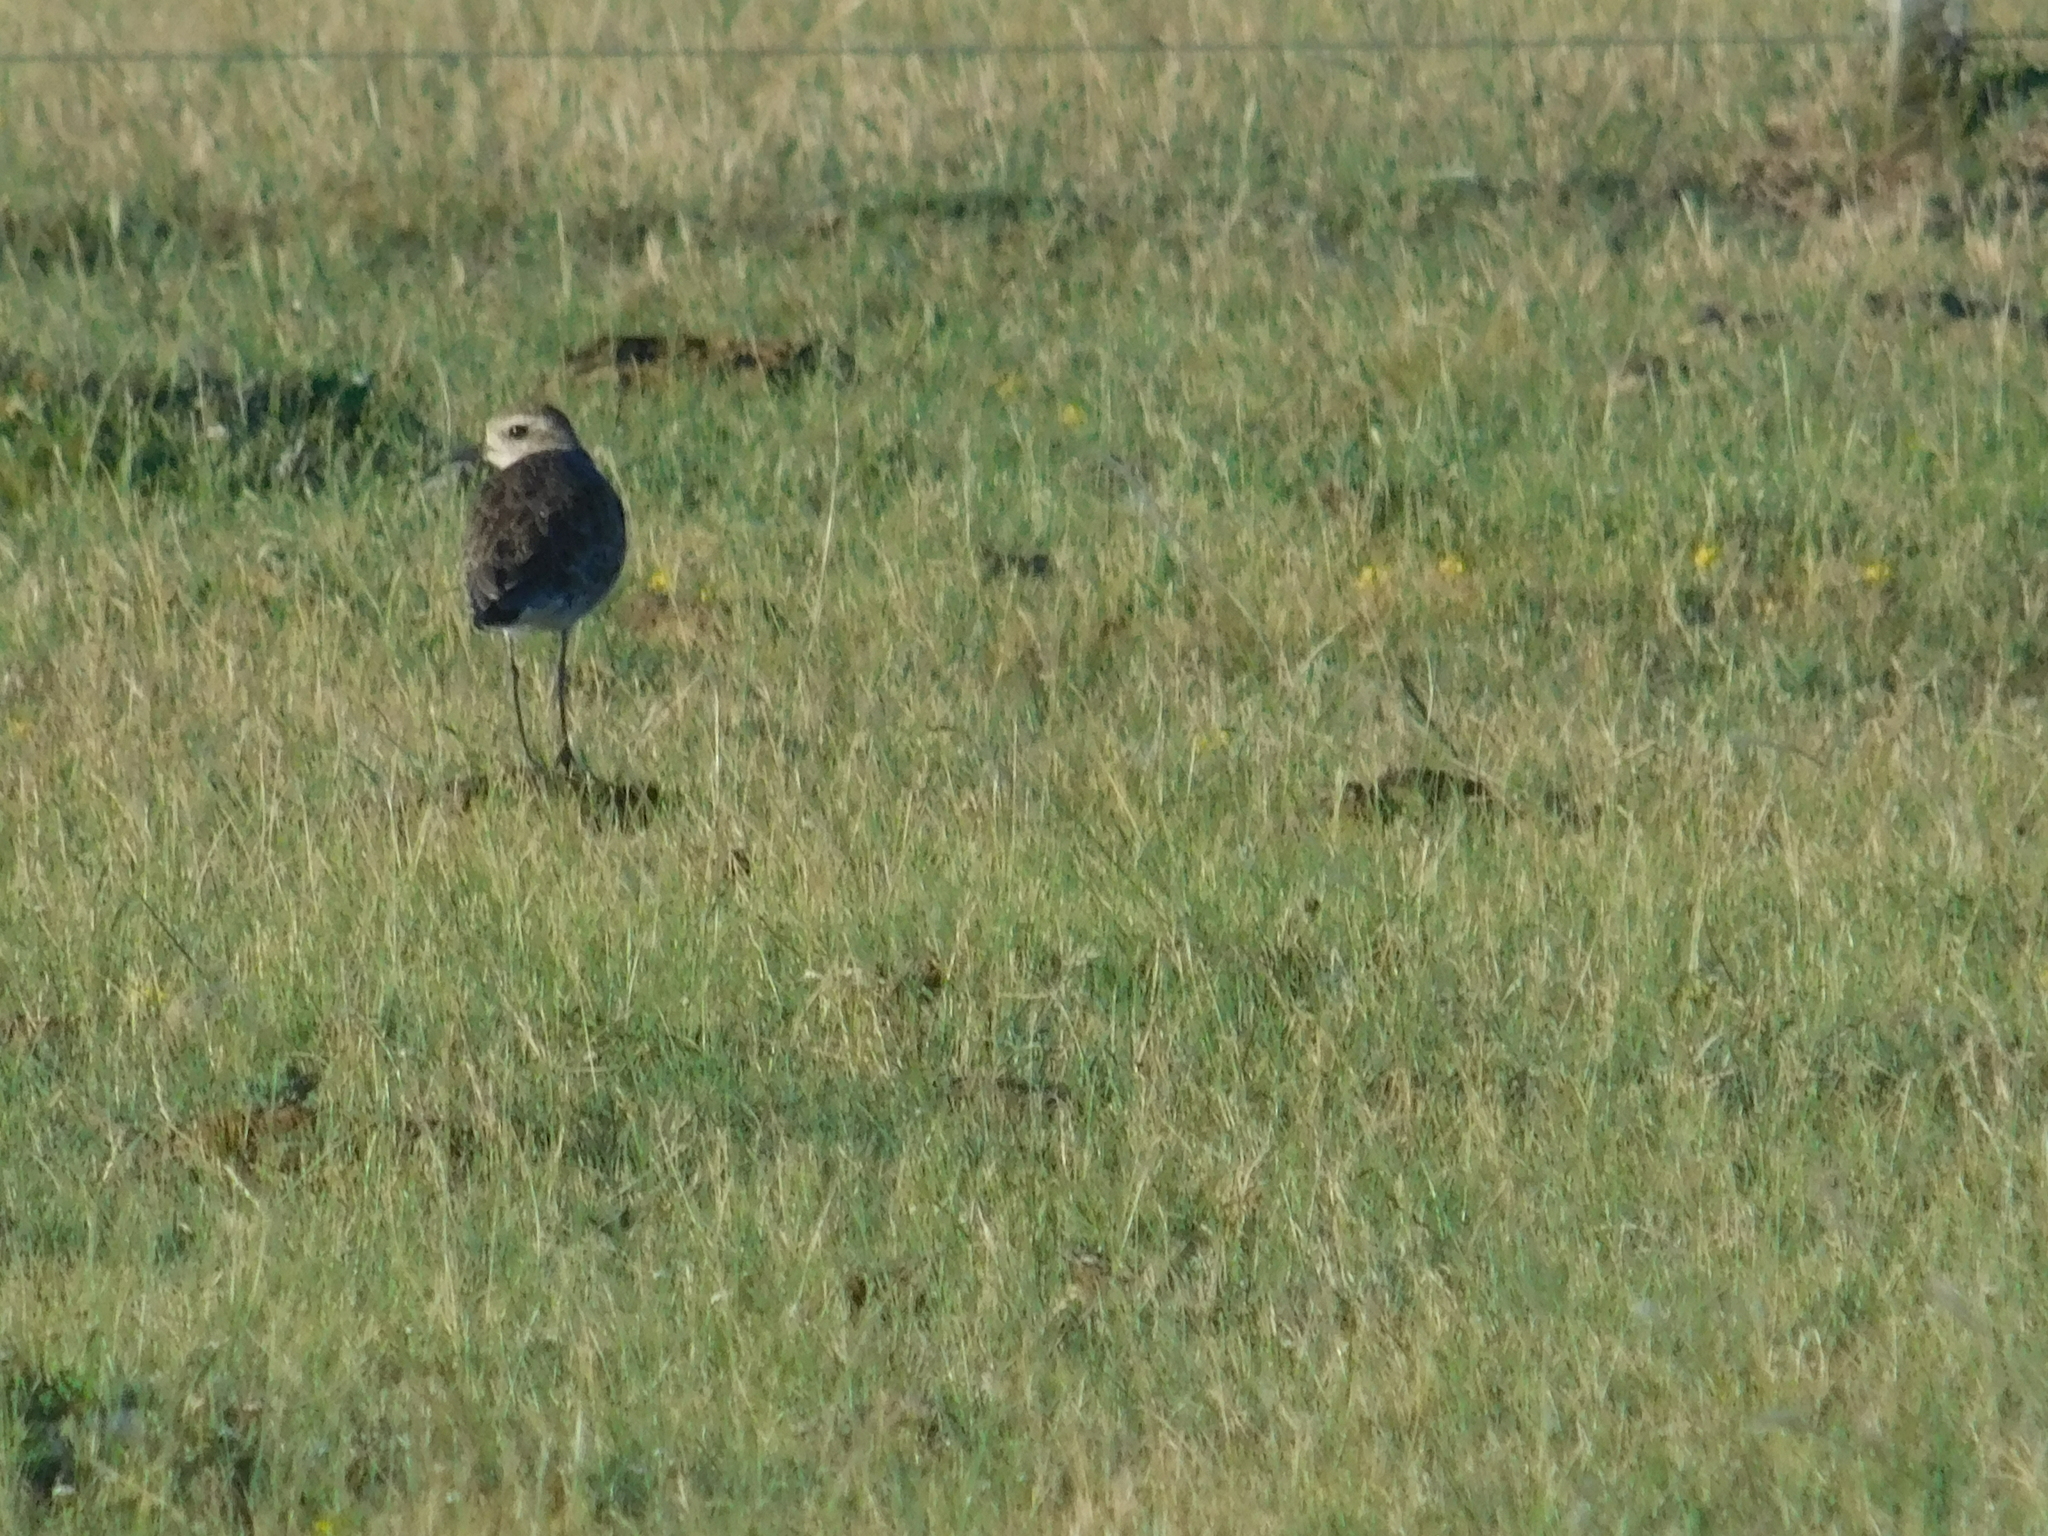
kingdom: Animalia
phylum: Chordata
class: Aves
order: Charadriiformes
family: Charadriidae
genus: Pluvialis
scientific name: Pluvialis dominica
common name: American golden plover
